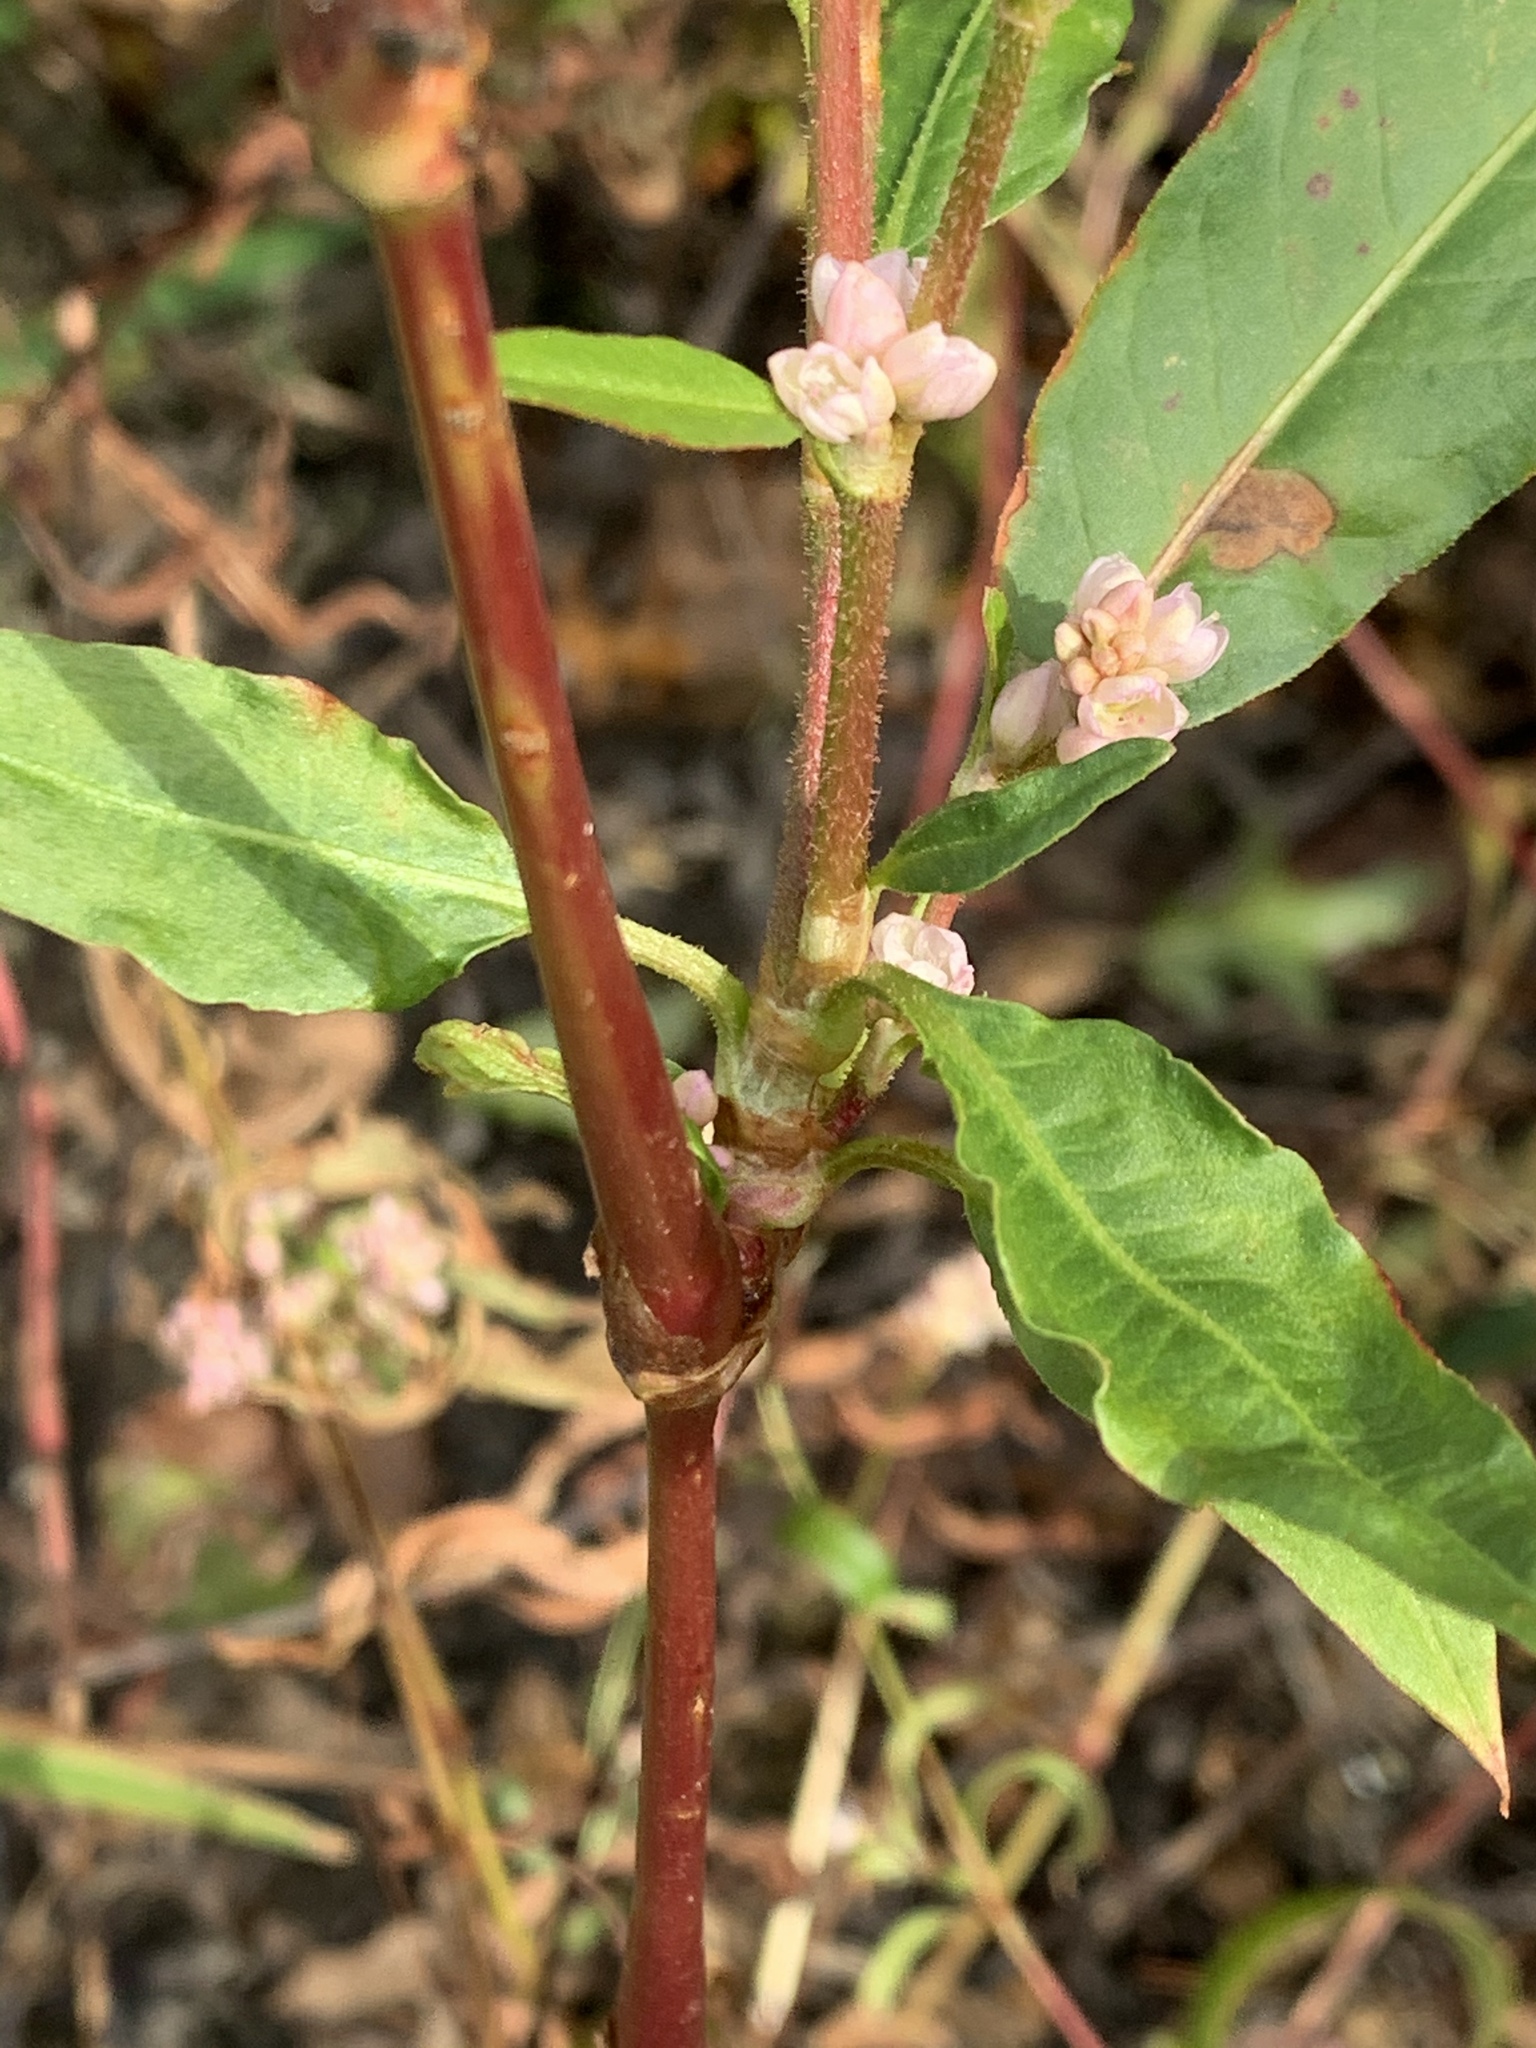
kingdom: Plantae
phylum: Tracheophyta
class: Magnoliopsida
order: Caryophyllales
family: Polygonaceae
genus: Persicaria
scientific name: Persicaria pensylvanica
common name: Pinkweed
